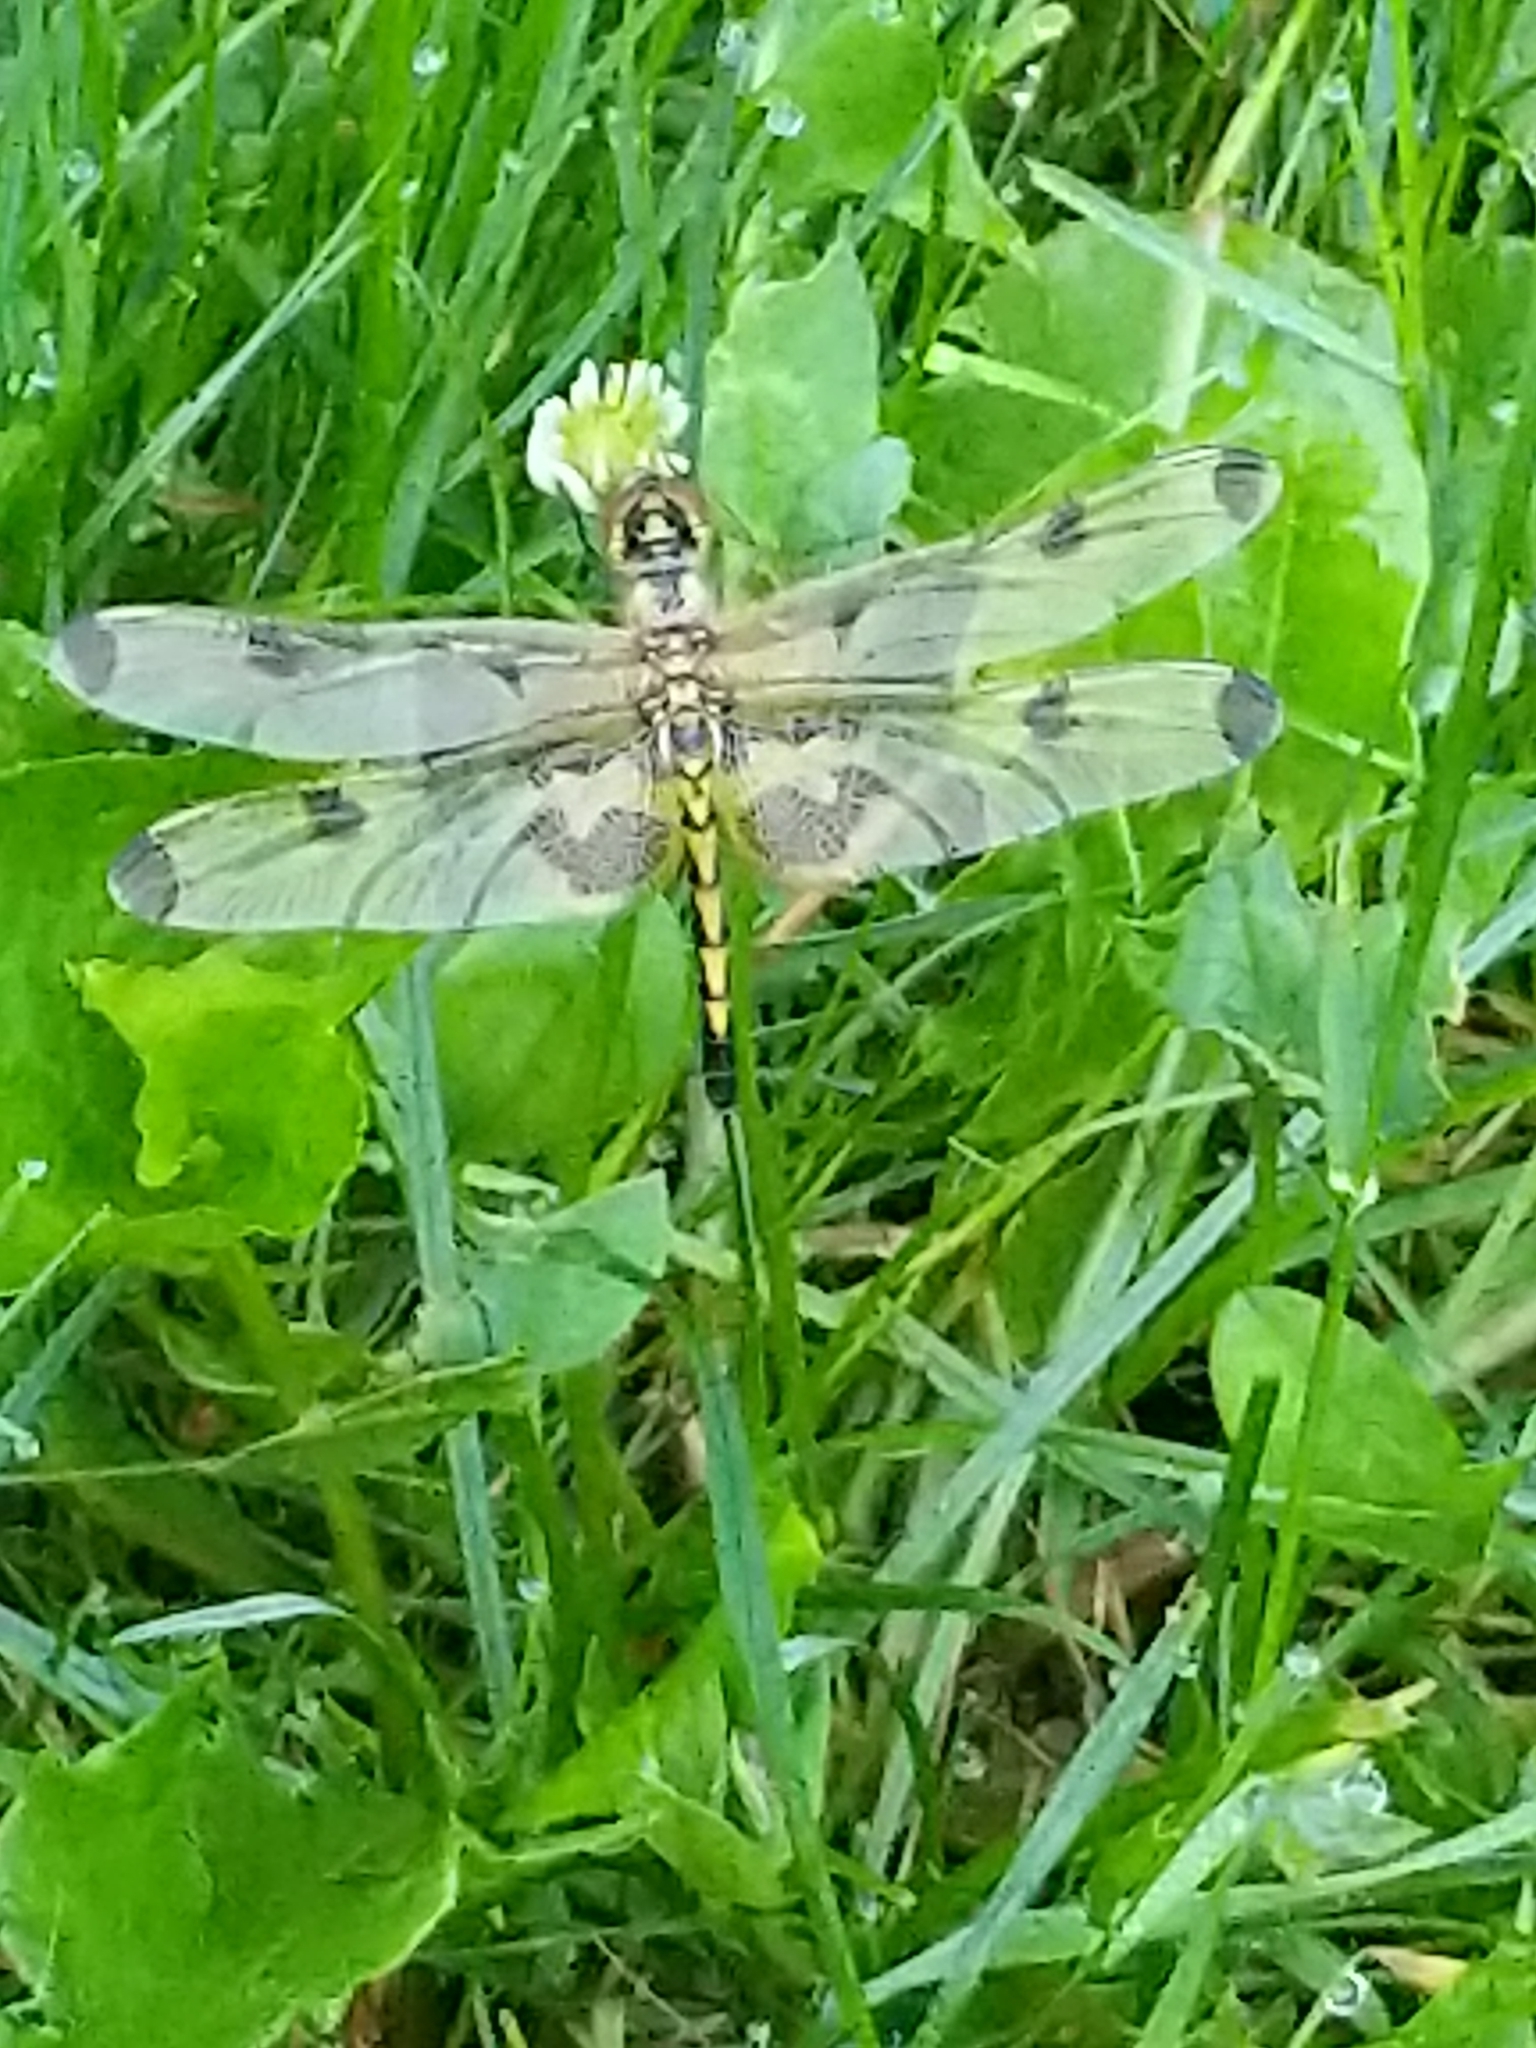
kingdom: Animalia
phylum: Arthropoda
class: Insecta
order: Odonata
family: Libellulidae
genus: Celithemis
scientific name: Celithemis elisa
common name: Calico pennant
